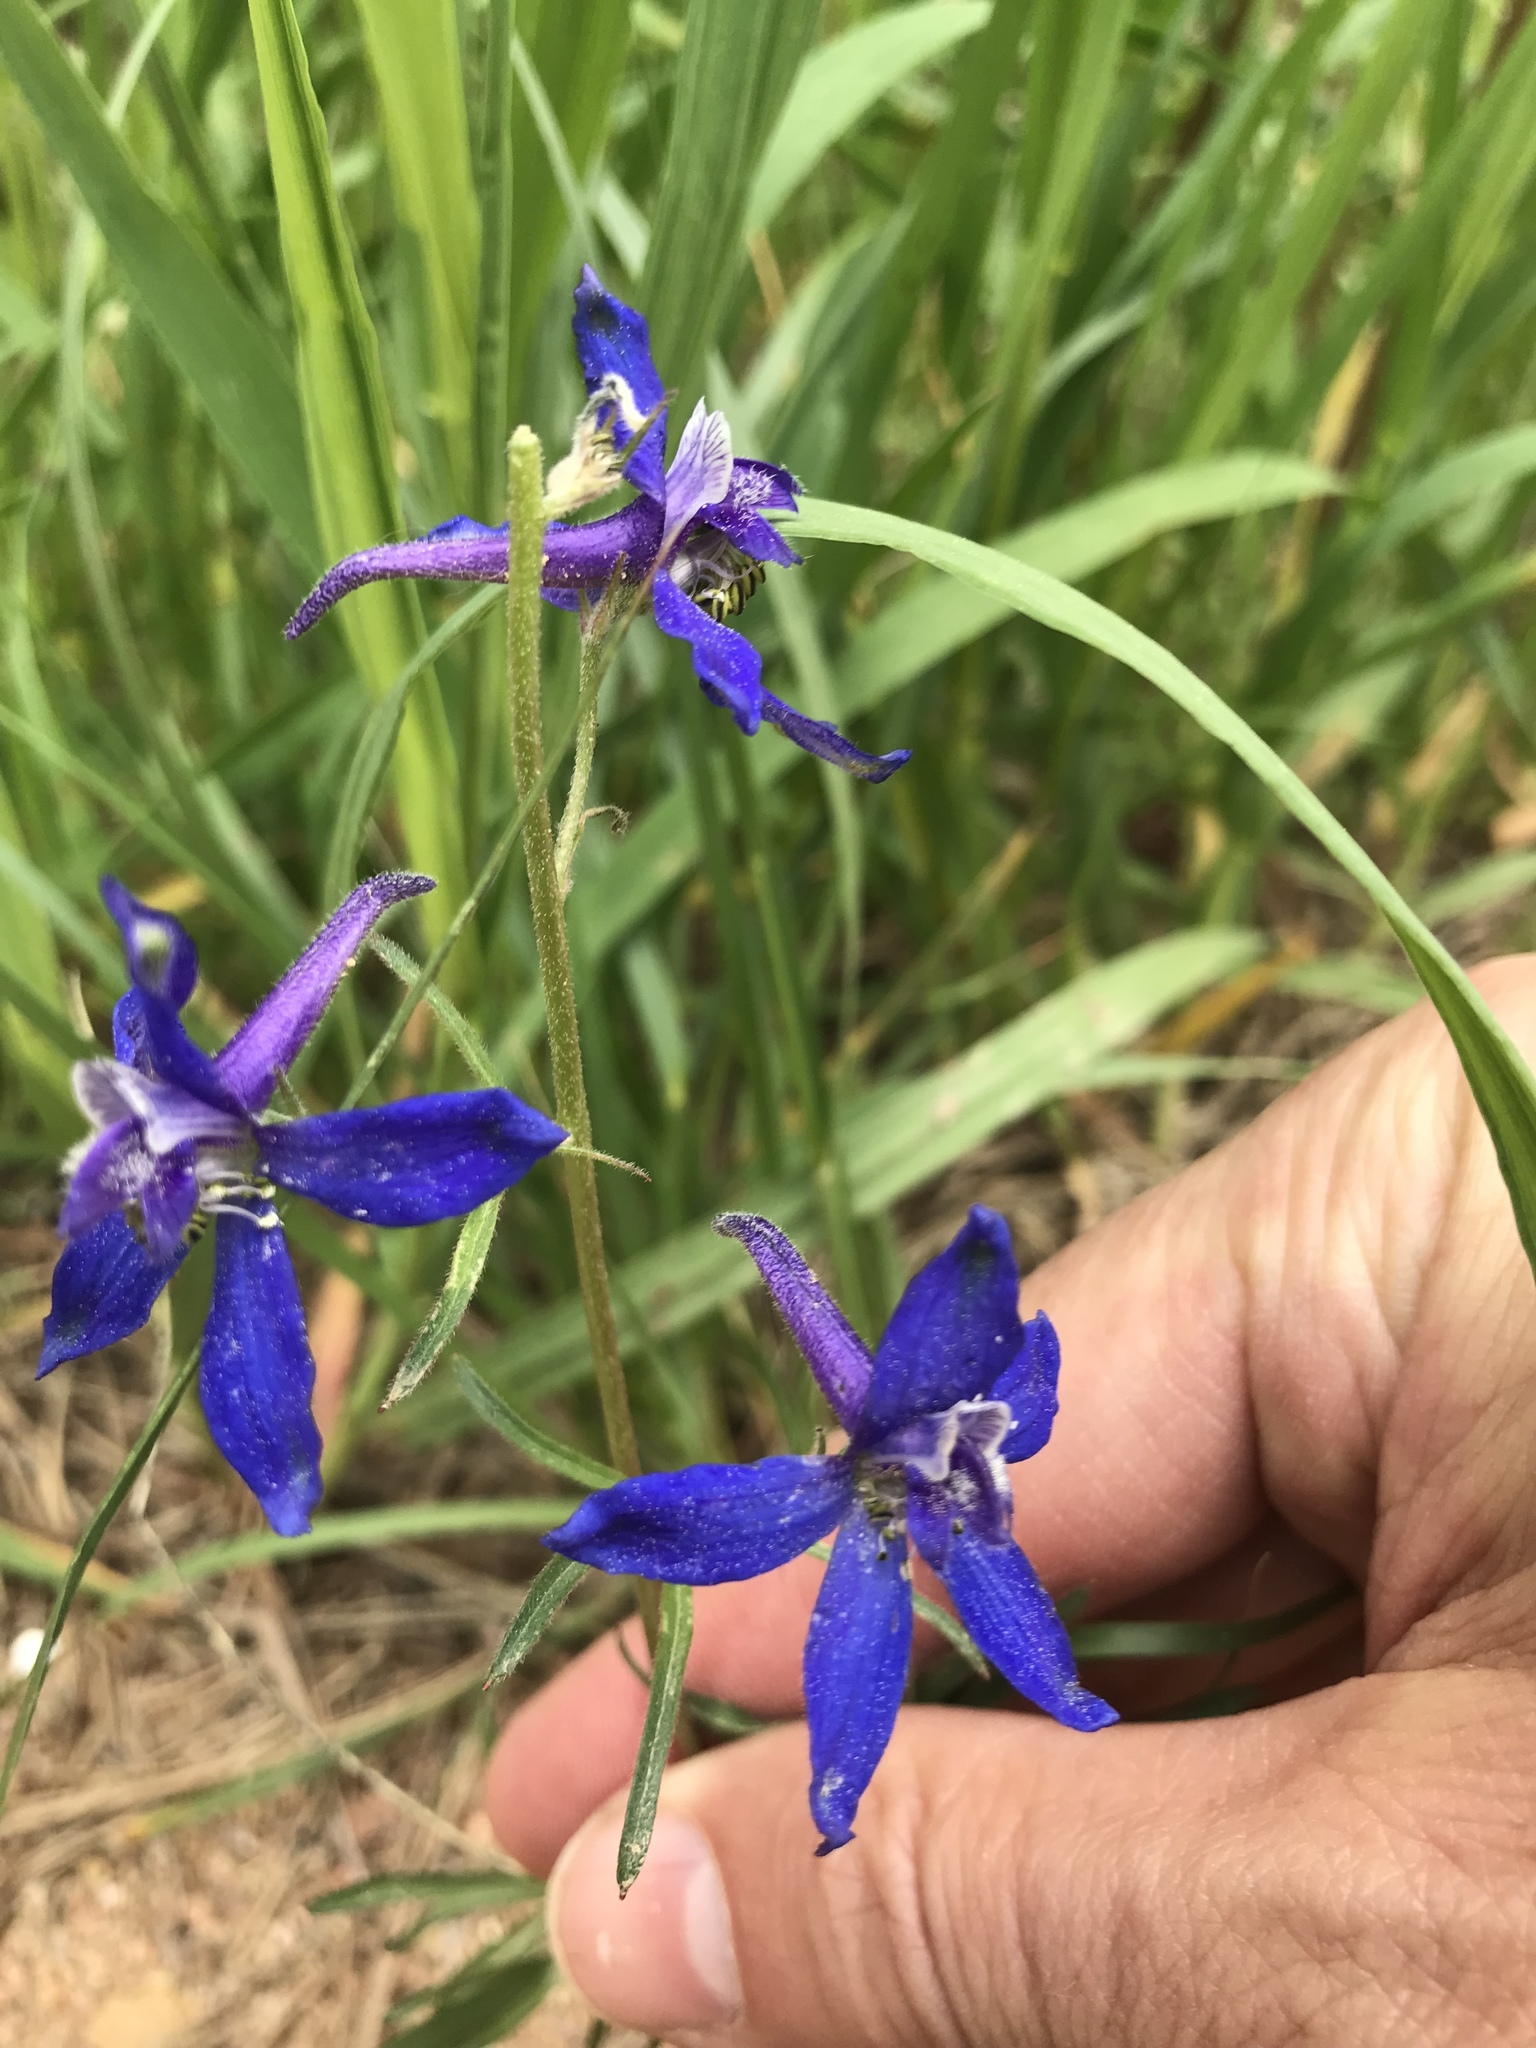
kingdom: Plantae
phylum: Tracheophyta
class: Magnoliopsida
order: Ranunculales
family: Ranunculaceae
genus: Delphinium
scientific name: Delphinium nuttallianum
